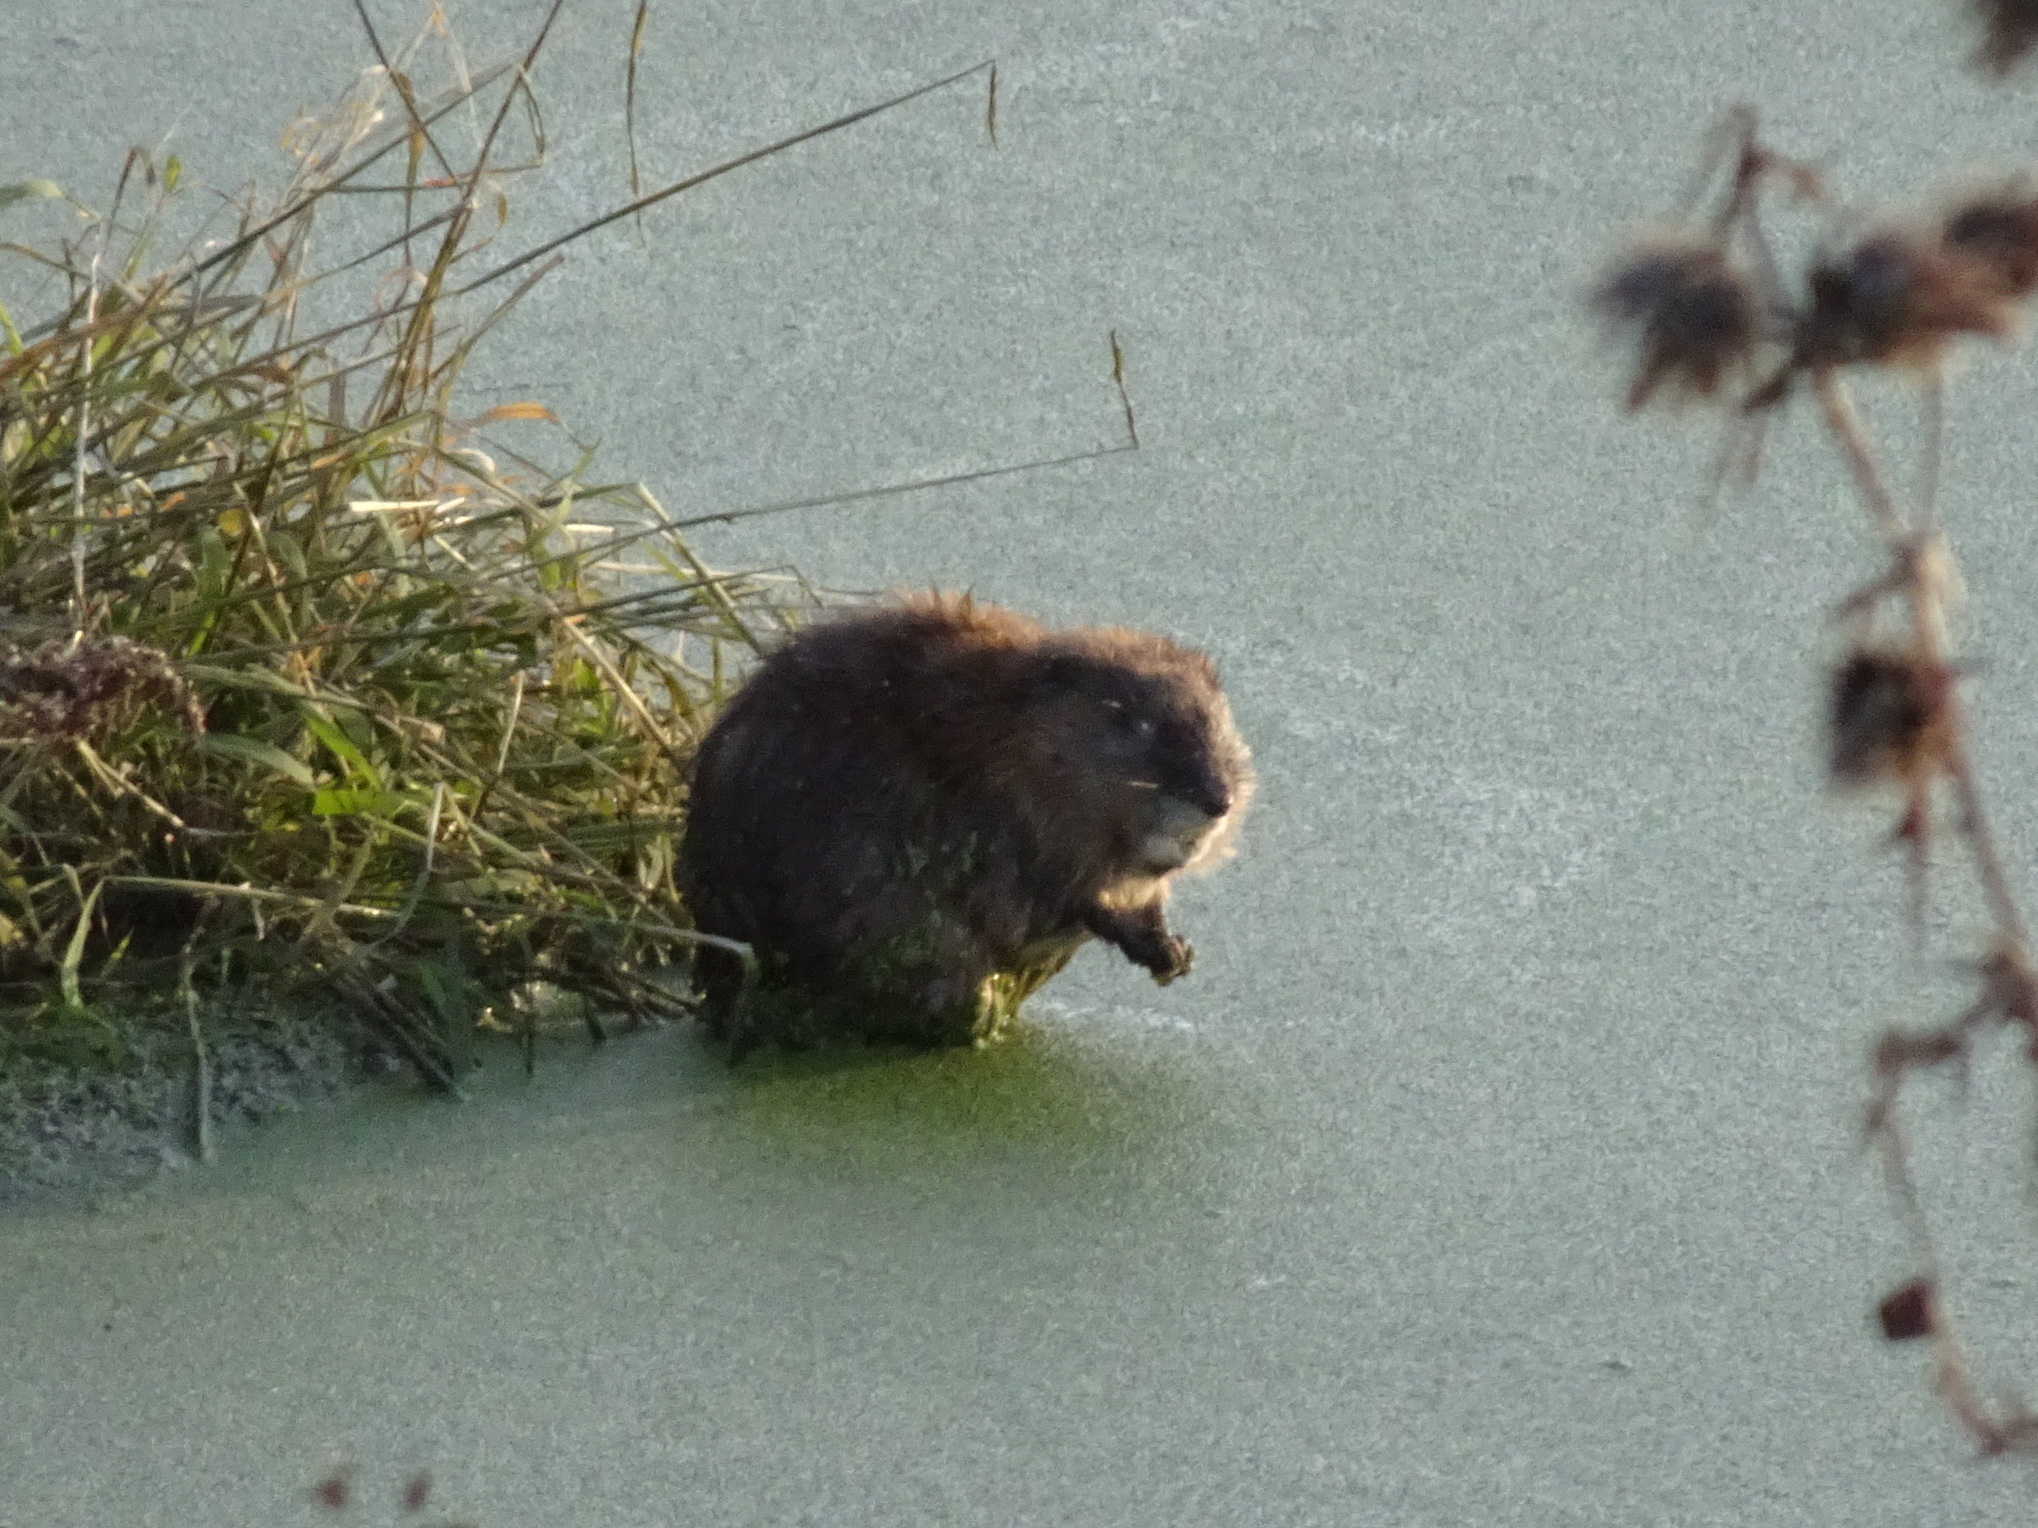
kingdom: Animalia
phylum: Chordata
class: Mammalia
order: Rodentia
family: Cricetidae
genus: Ondatra
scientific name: Ondatra zibethicus
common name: Muskrat
